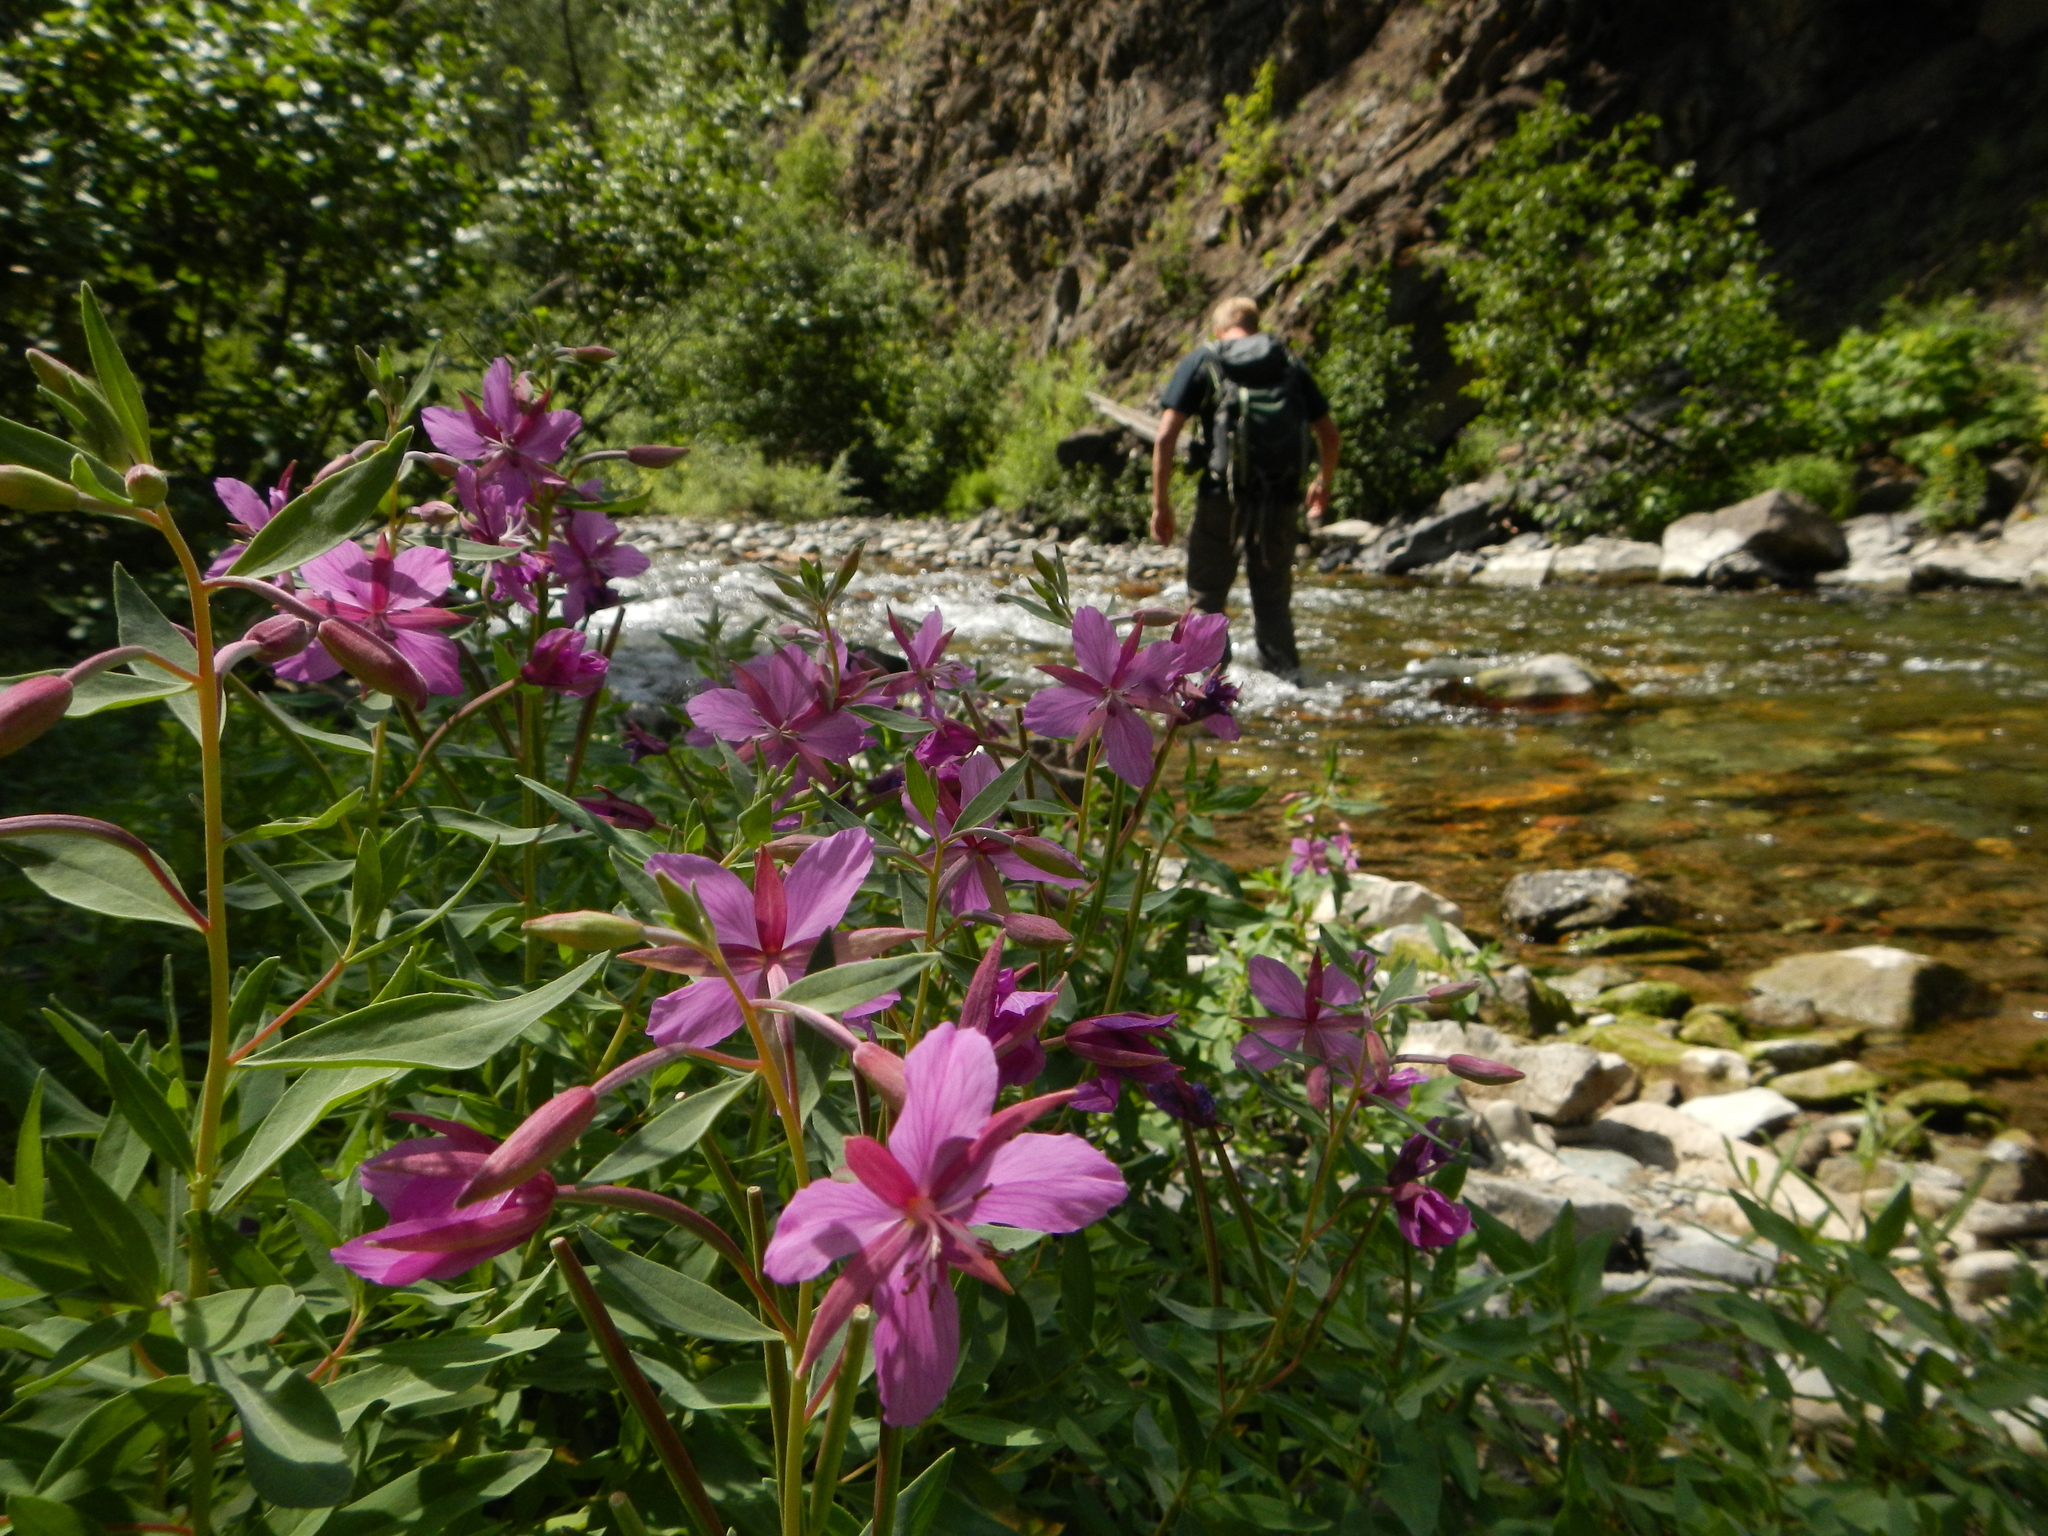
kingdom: Plantae
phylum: Tracheophyta
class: Magnoliopsida
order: Myrtales
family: Onagraceae
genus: Chamaenerion
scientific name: Chamaenerion latifolium
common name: Dwarf fireweed
